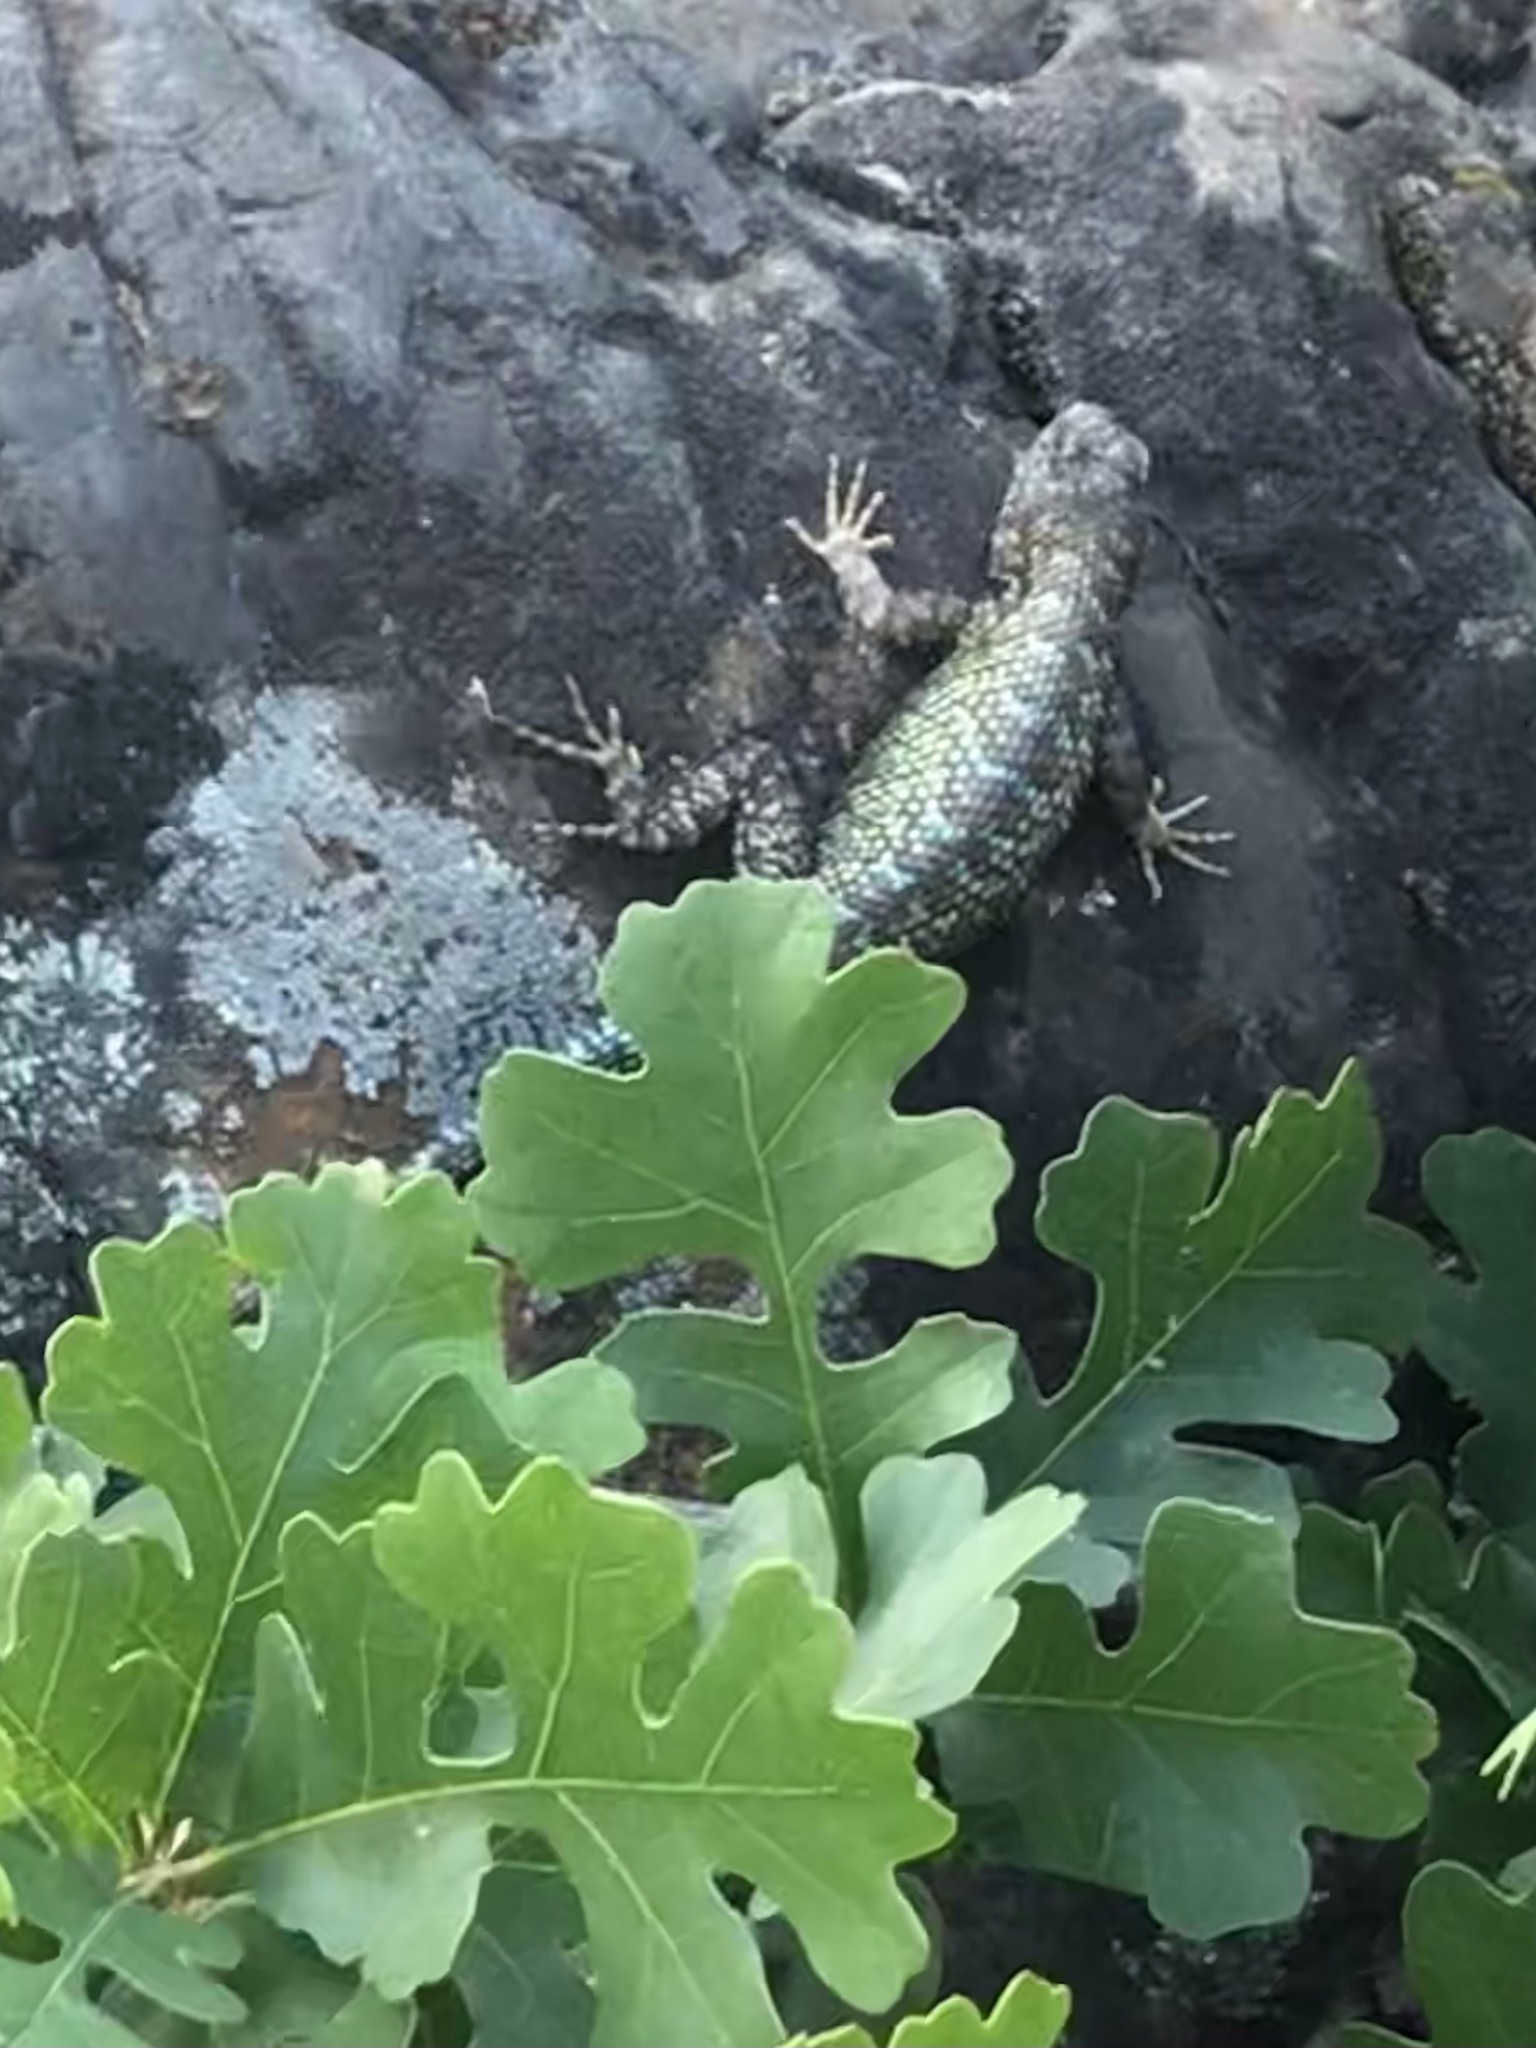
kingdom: Animalia
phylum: Chordata
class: Squamata
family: Phrynosomatidae
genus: Sceloporus
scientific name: Sceloporus occidentalis
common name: Western fence lizard
